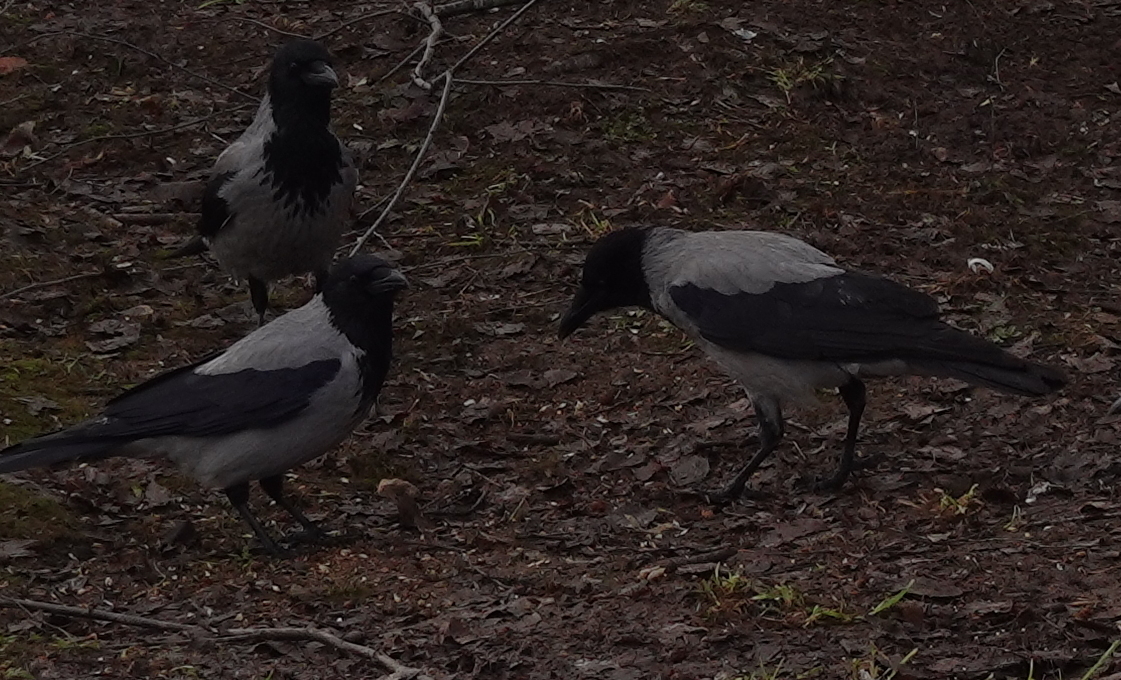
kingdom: Animalia
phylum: Chordata
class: Aves
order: Passeriformes
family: Corvidae
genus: Corvus
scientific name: Corvus cornix
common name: Hooded crow
